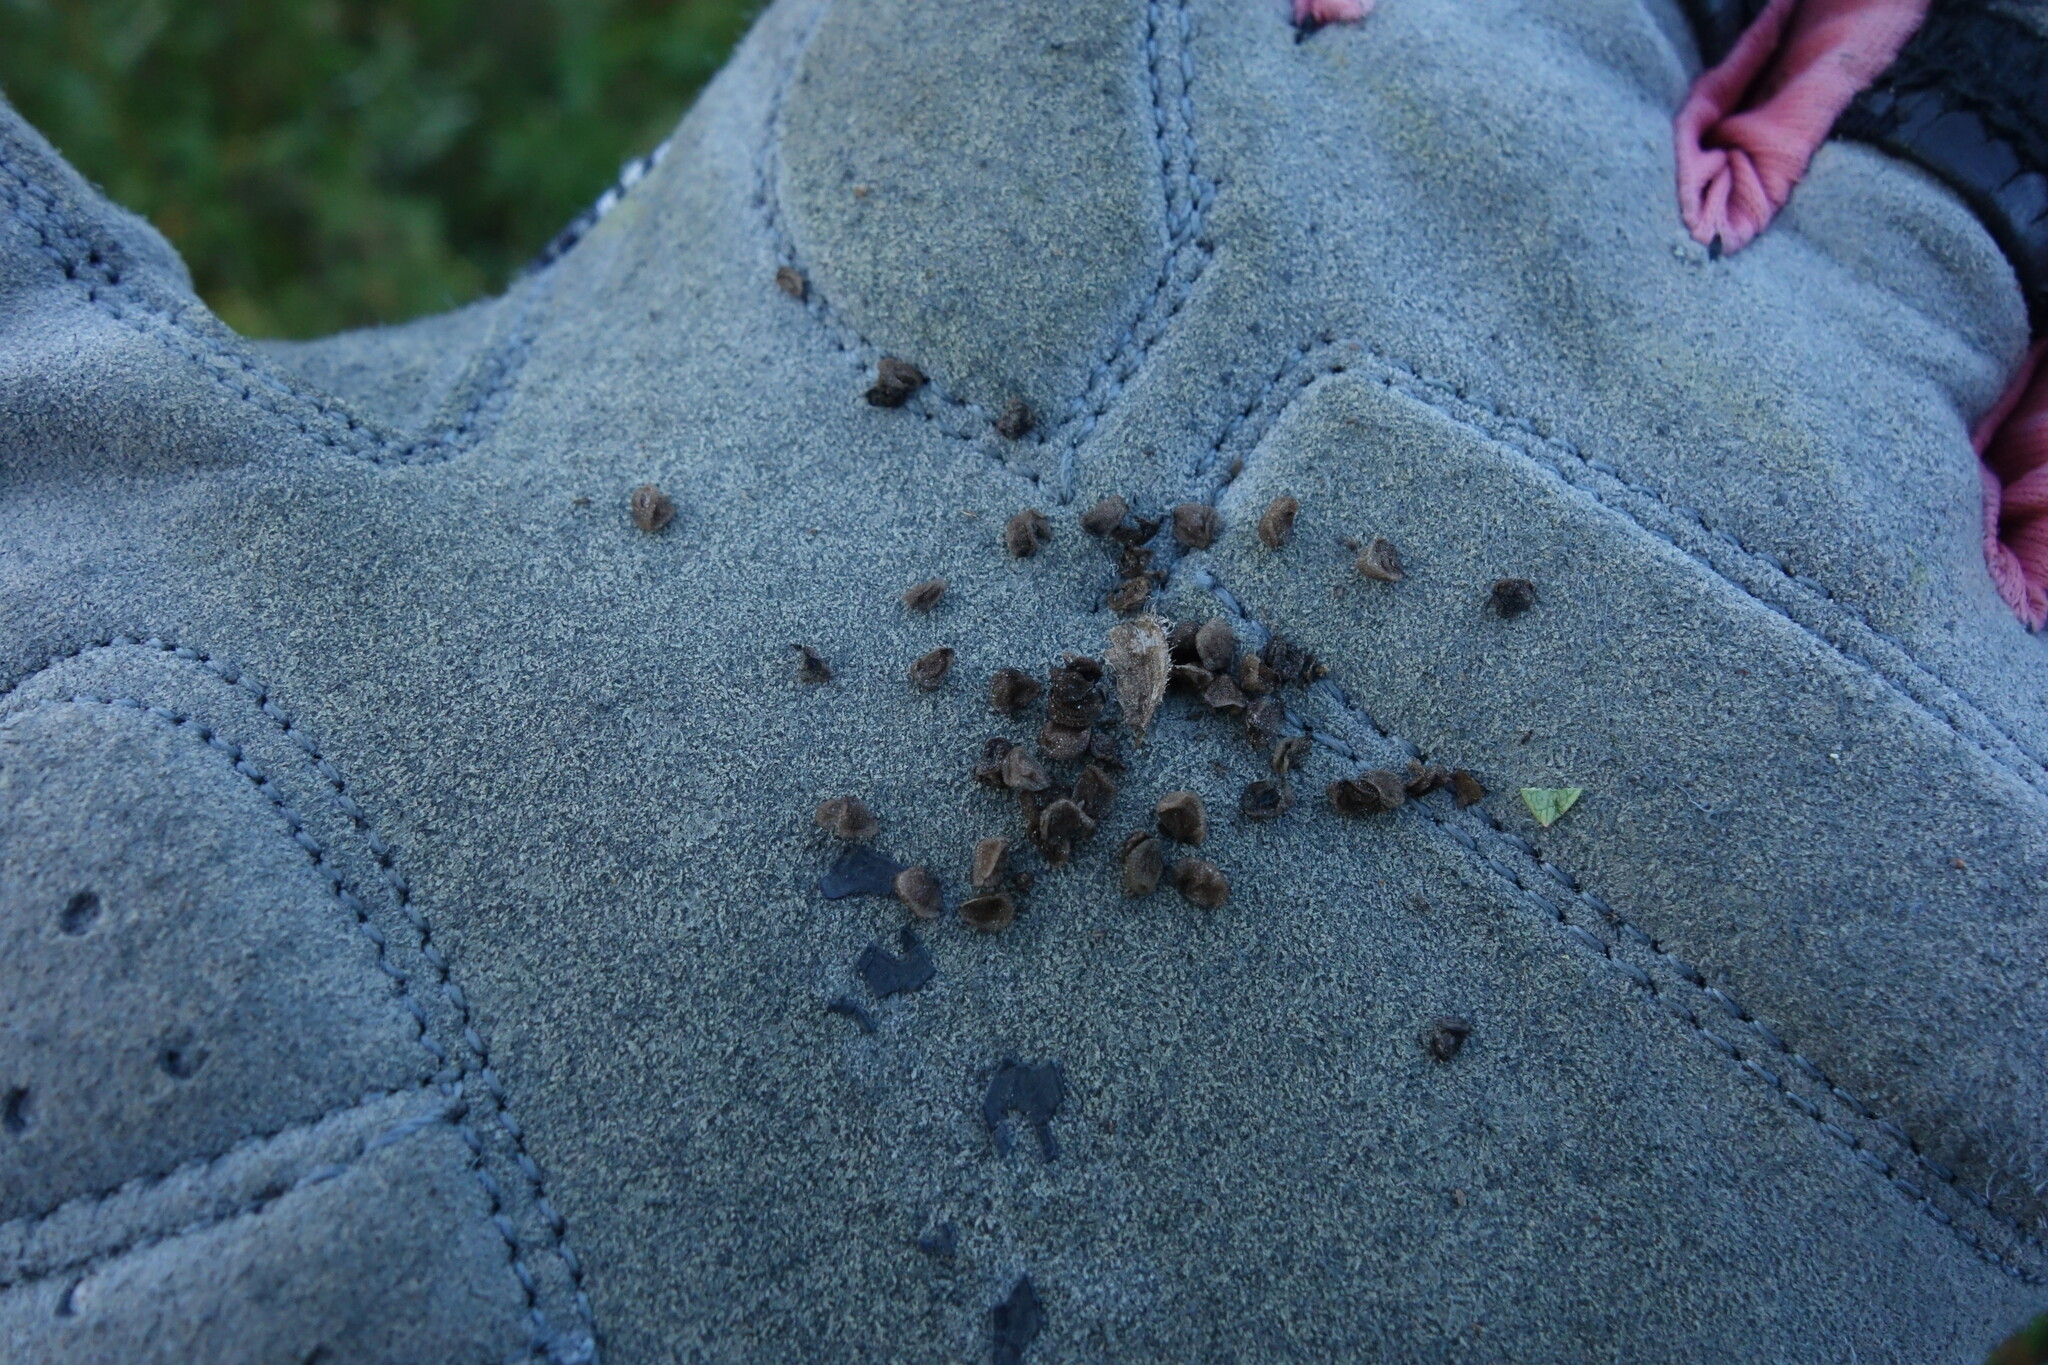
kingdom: Plantae
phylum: Tracheophyta
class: Magnoliopsida
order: Lamiales
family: Orobanchaceae
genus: Pedicularis
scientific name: Pedicularis tristis
